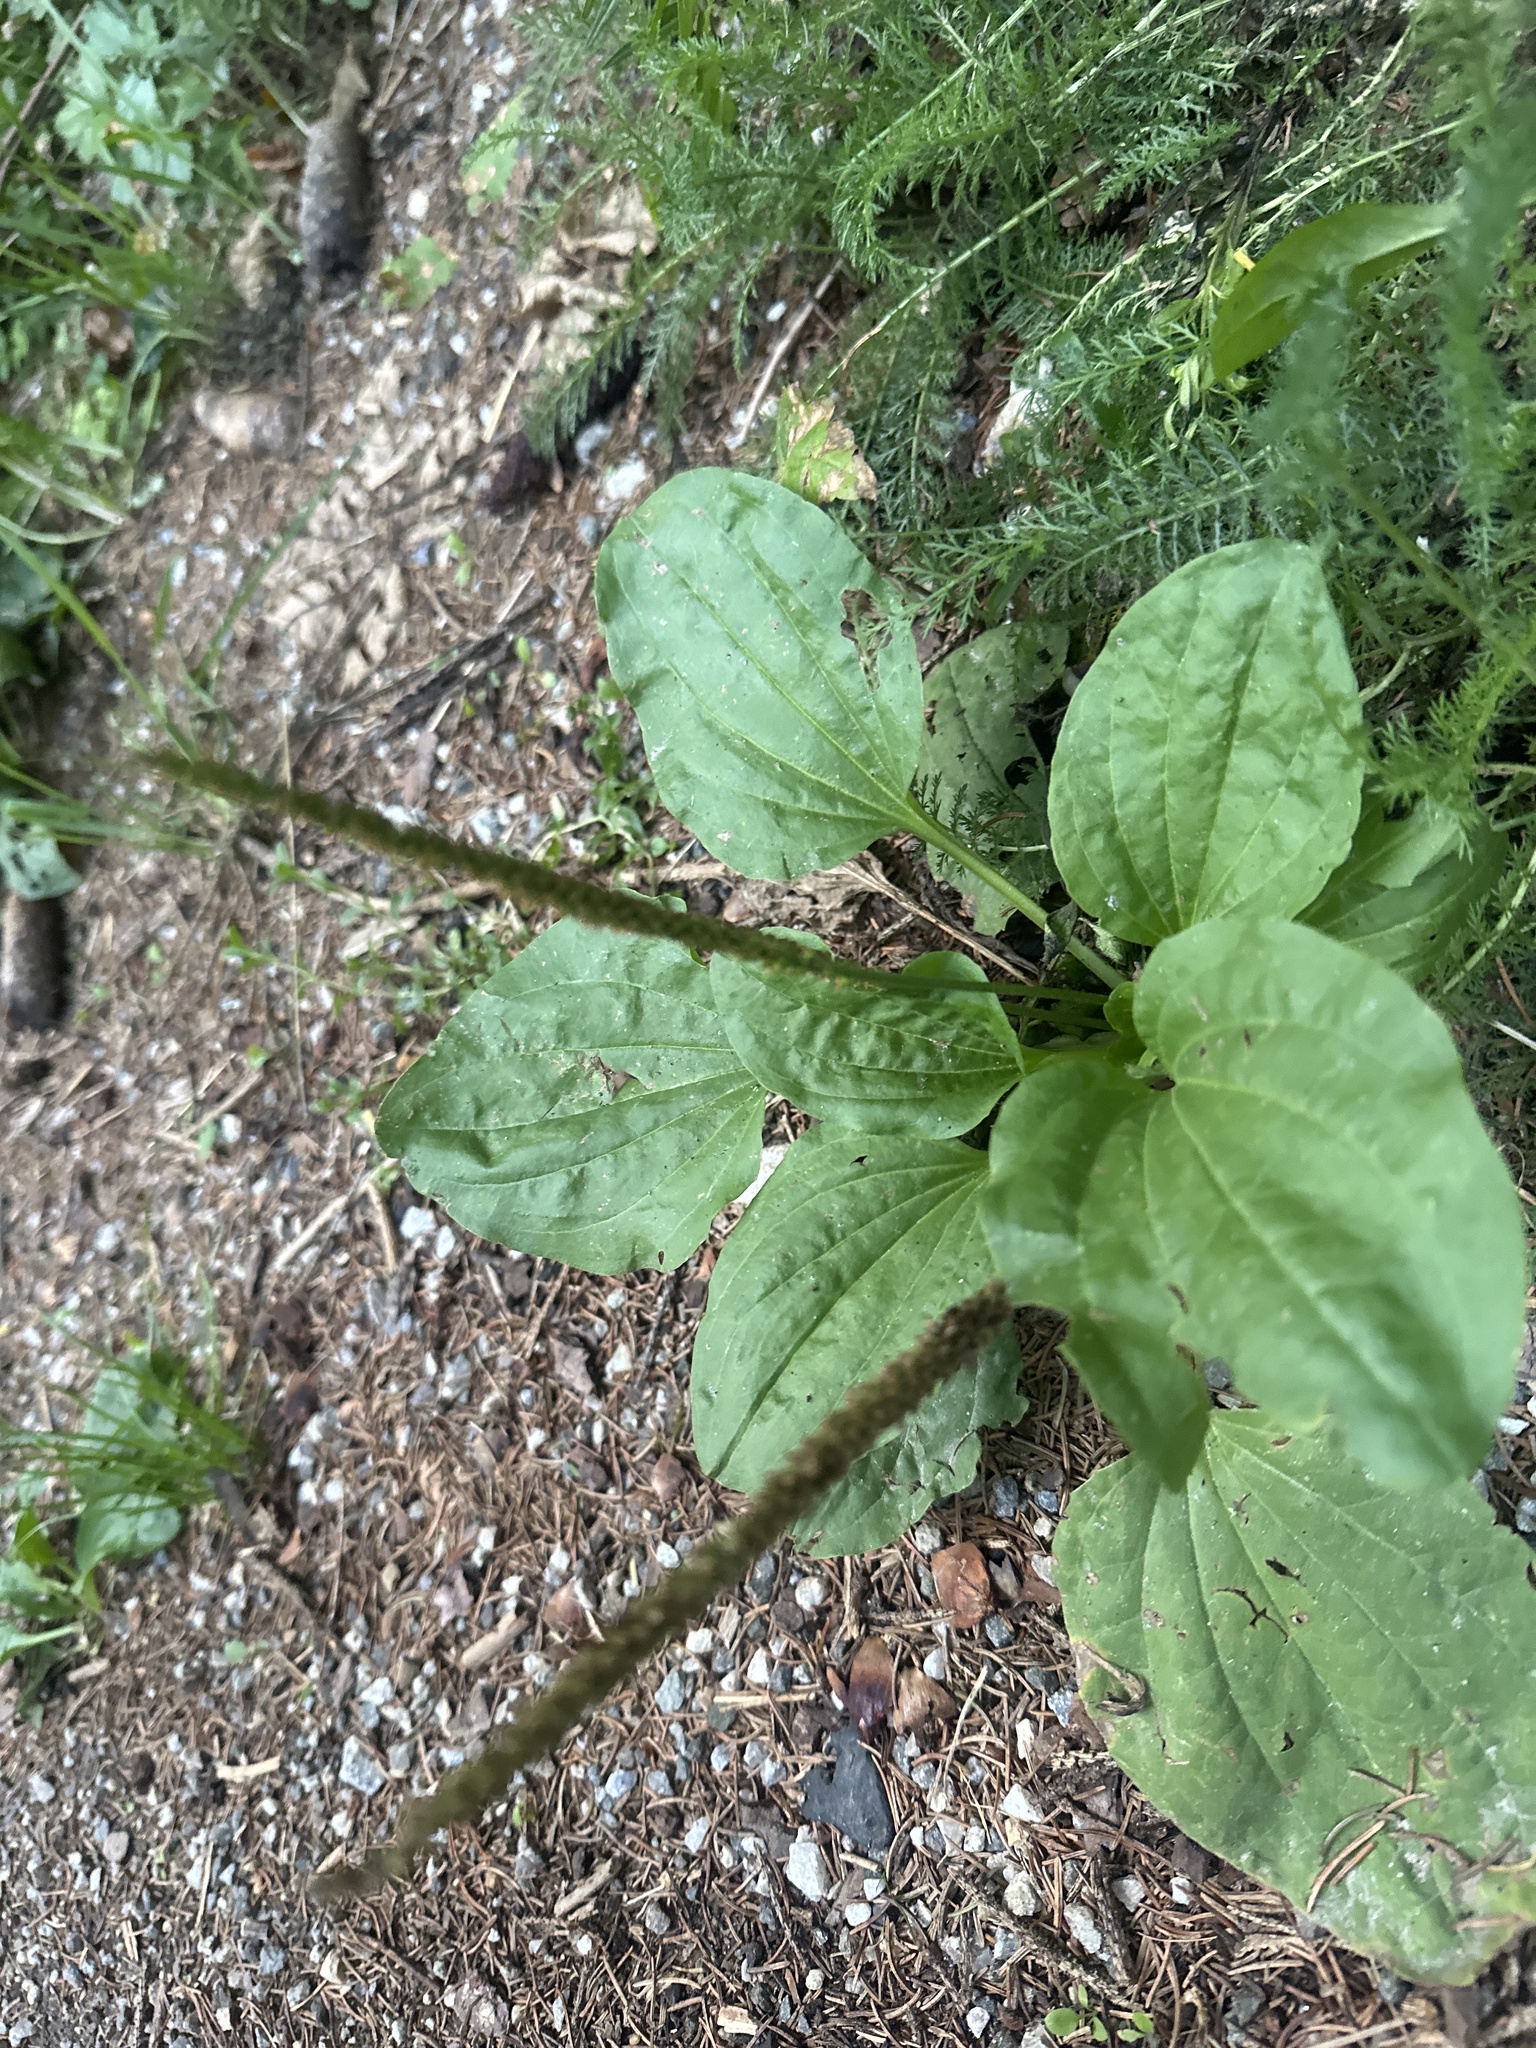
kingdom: Plantae
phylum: Tracheophyta
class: Magnoliopsida
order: Lamiales
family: Plantaginaceae
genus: Plantago
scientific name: Plantago major
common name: Common plantain
